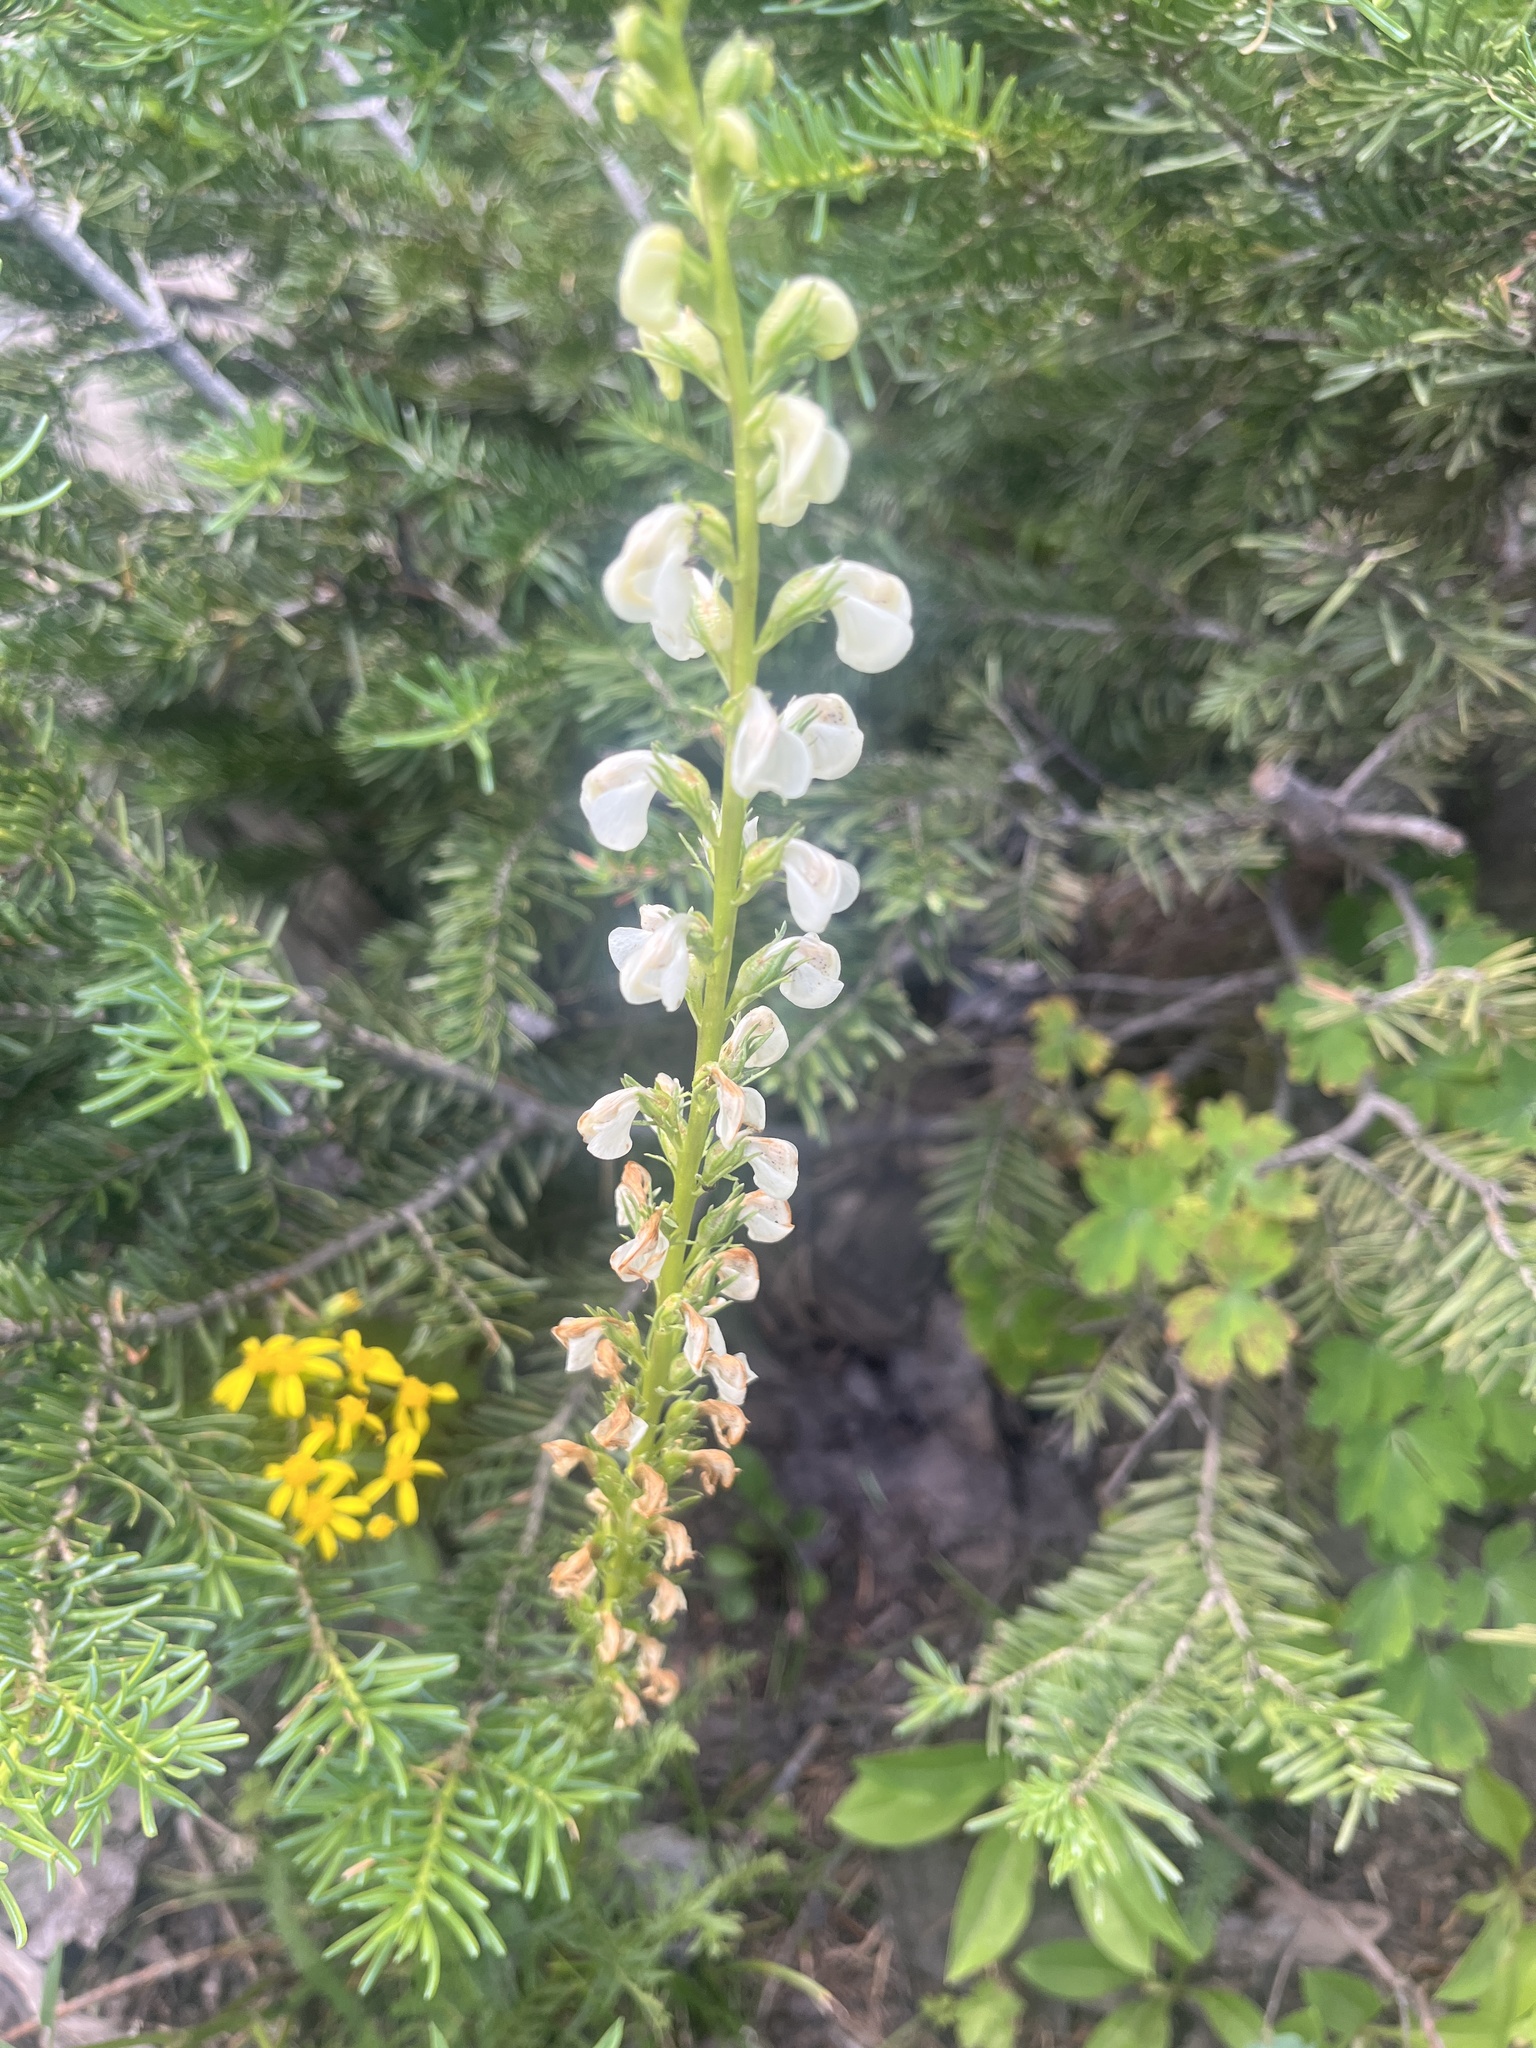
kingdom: Plantae
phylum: Tracheophyta
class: Magnoliopsida
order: Lamiales
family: Orobanchaceae
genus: Pedicularis
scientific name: Pedicularis contorta
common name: Coiled lousewort
